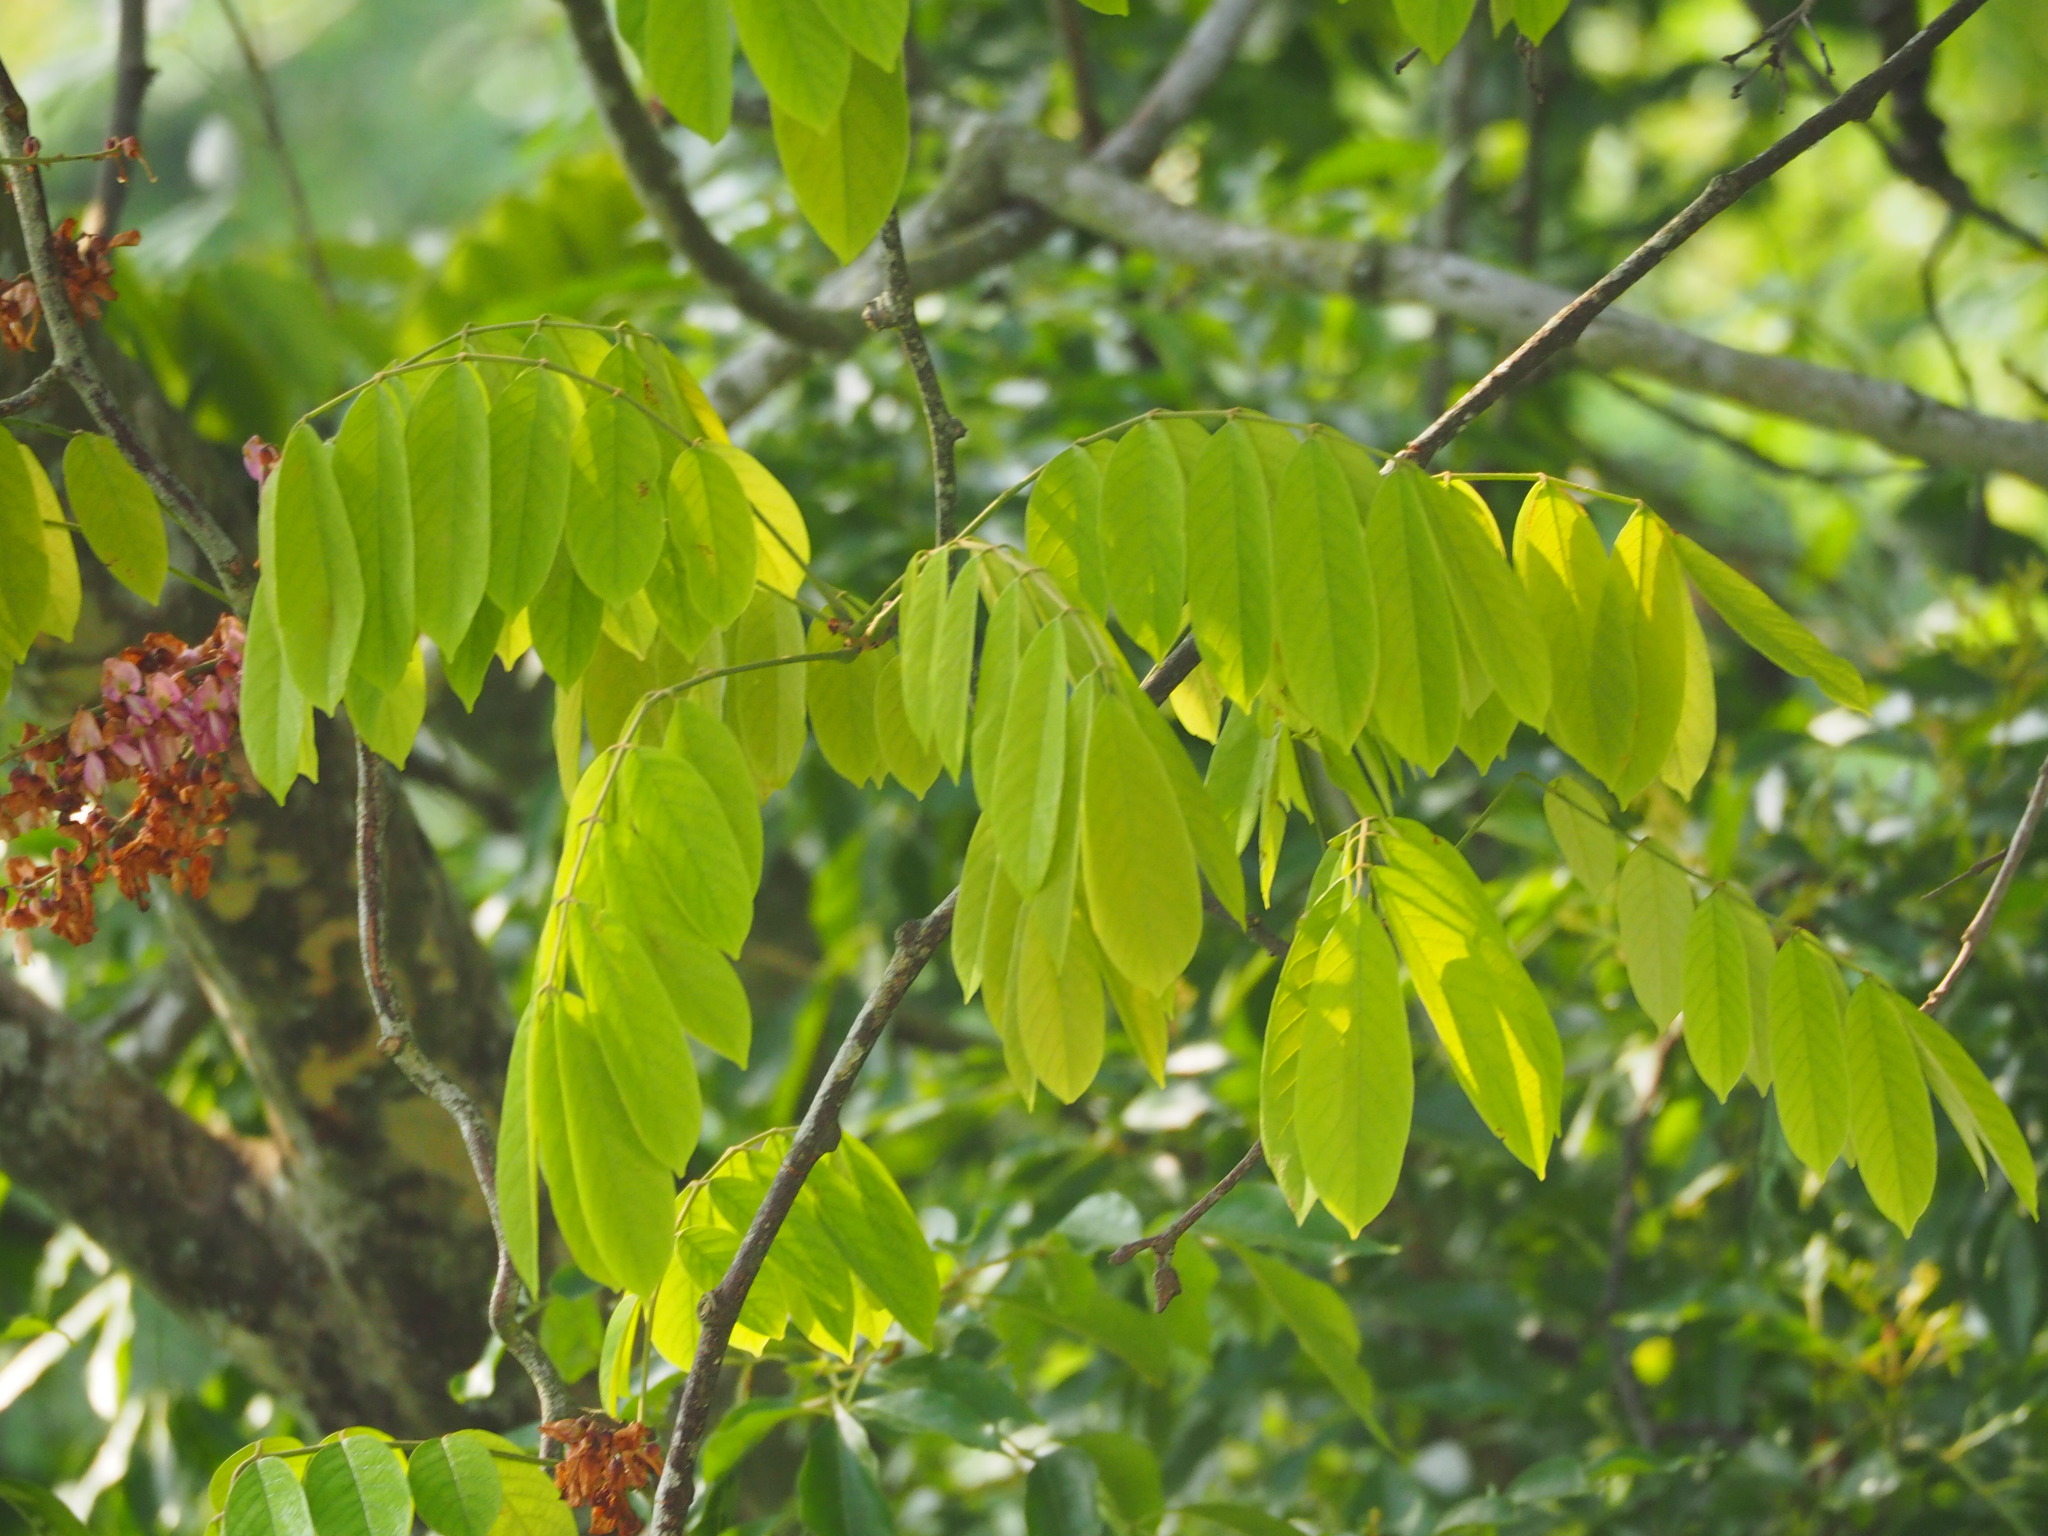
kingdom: Plantae
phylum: Tracheophyta
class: Magnoliopsida
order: Fabales
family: Fabaceae
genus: Millettia
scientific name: Millettia pachycarpa
